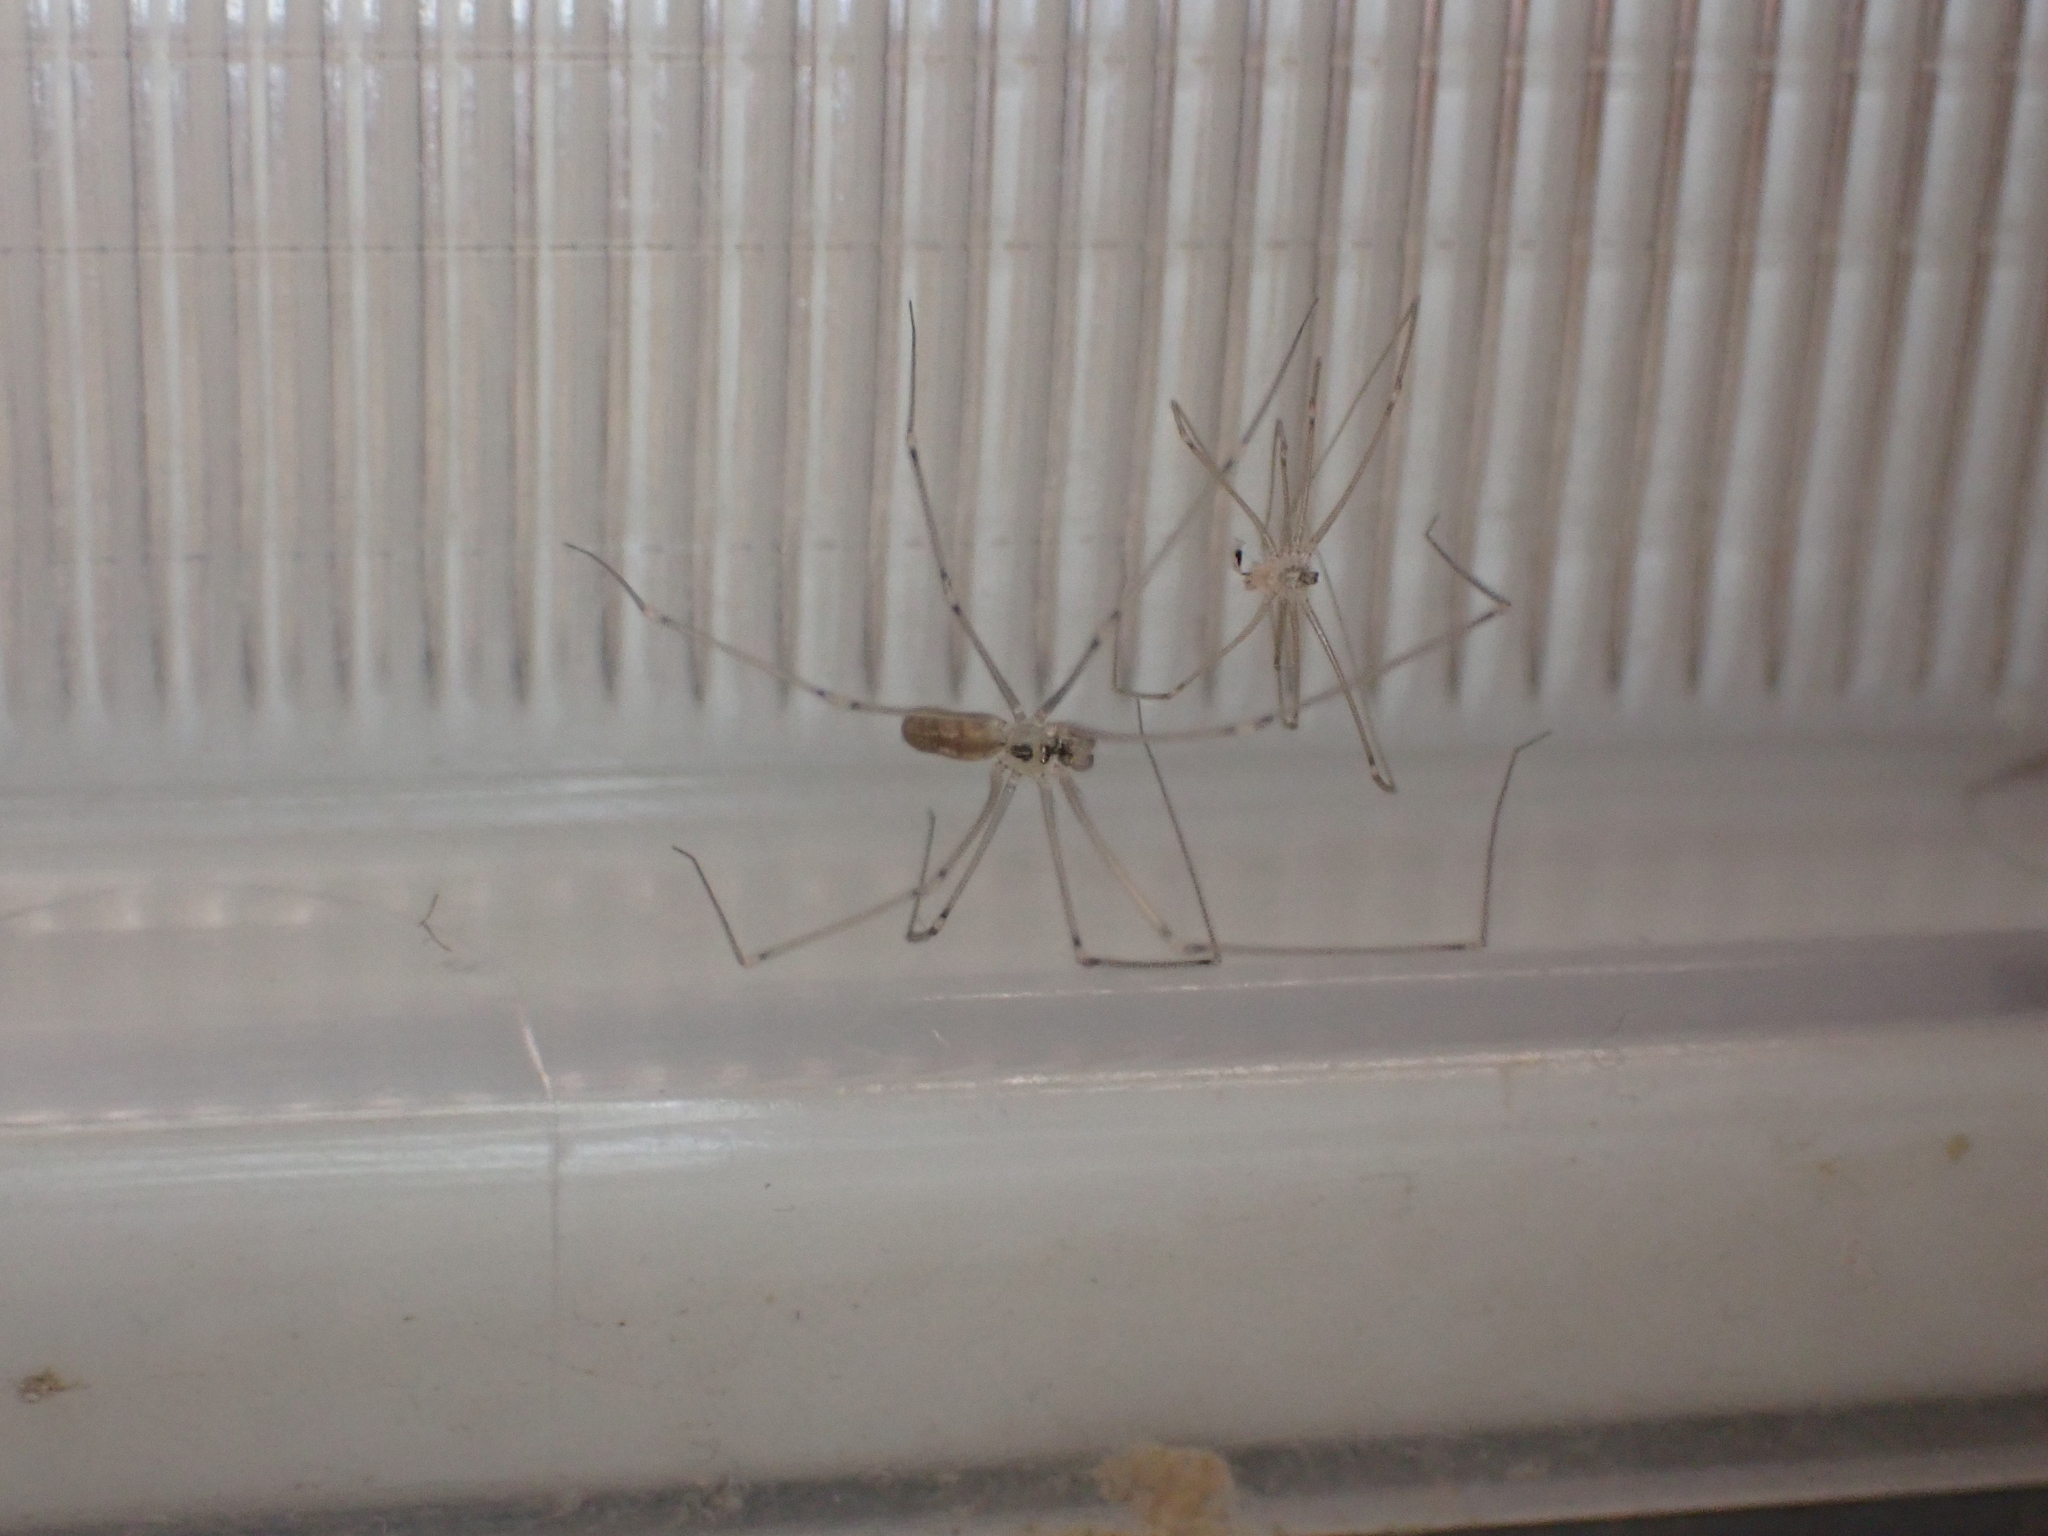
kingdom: Animalia
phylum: Arthropoda
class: Arachnida
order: Araneae
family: Pholcidae
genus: Pholcus
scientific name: Pholcus manueli
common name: Cellar spider
